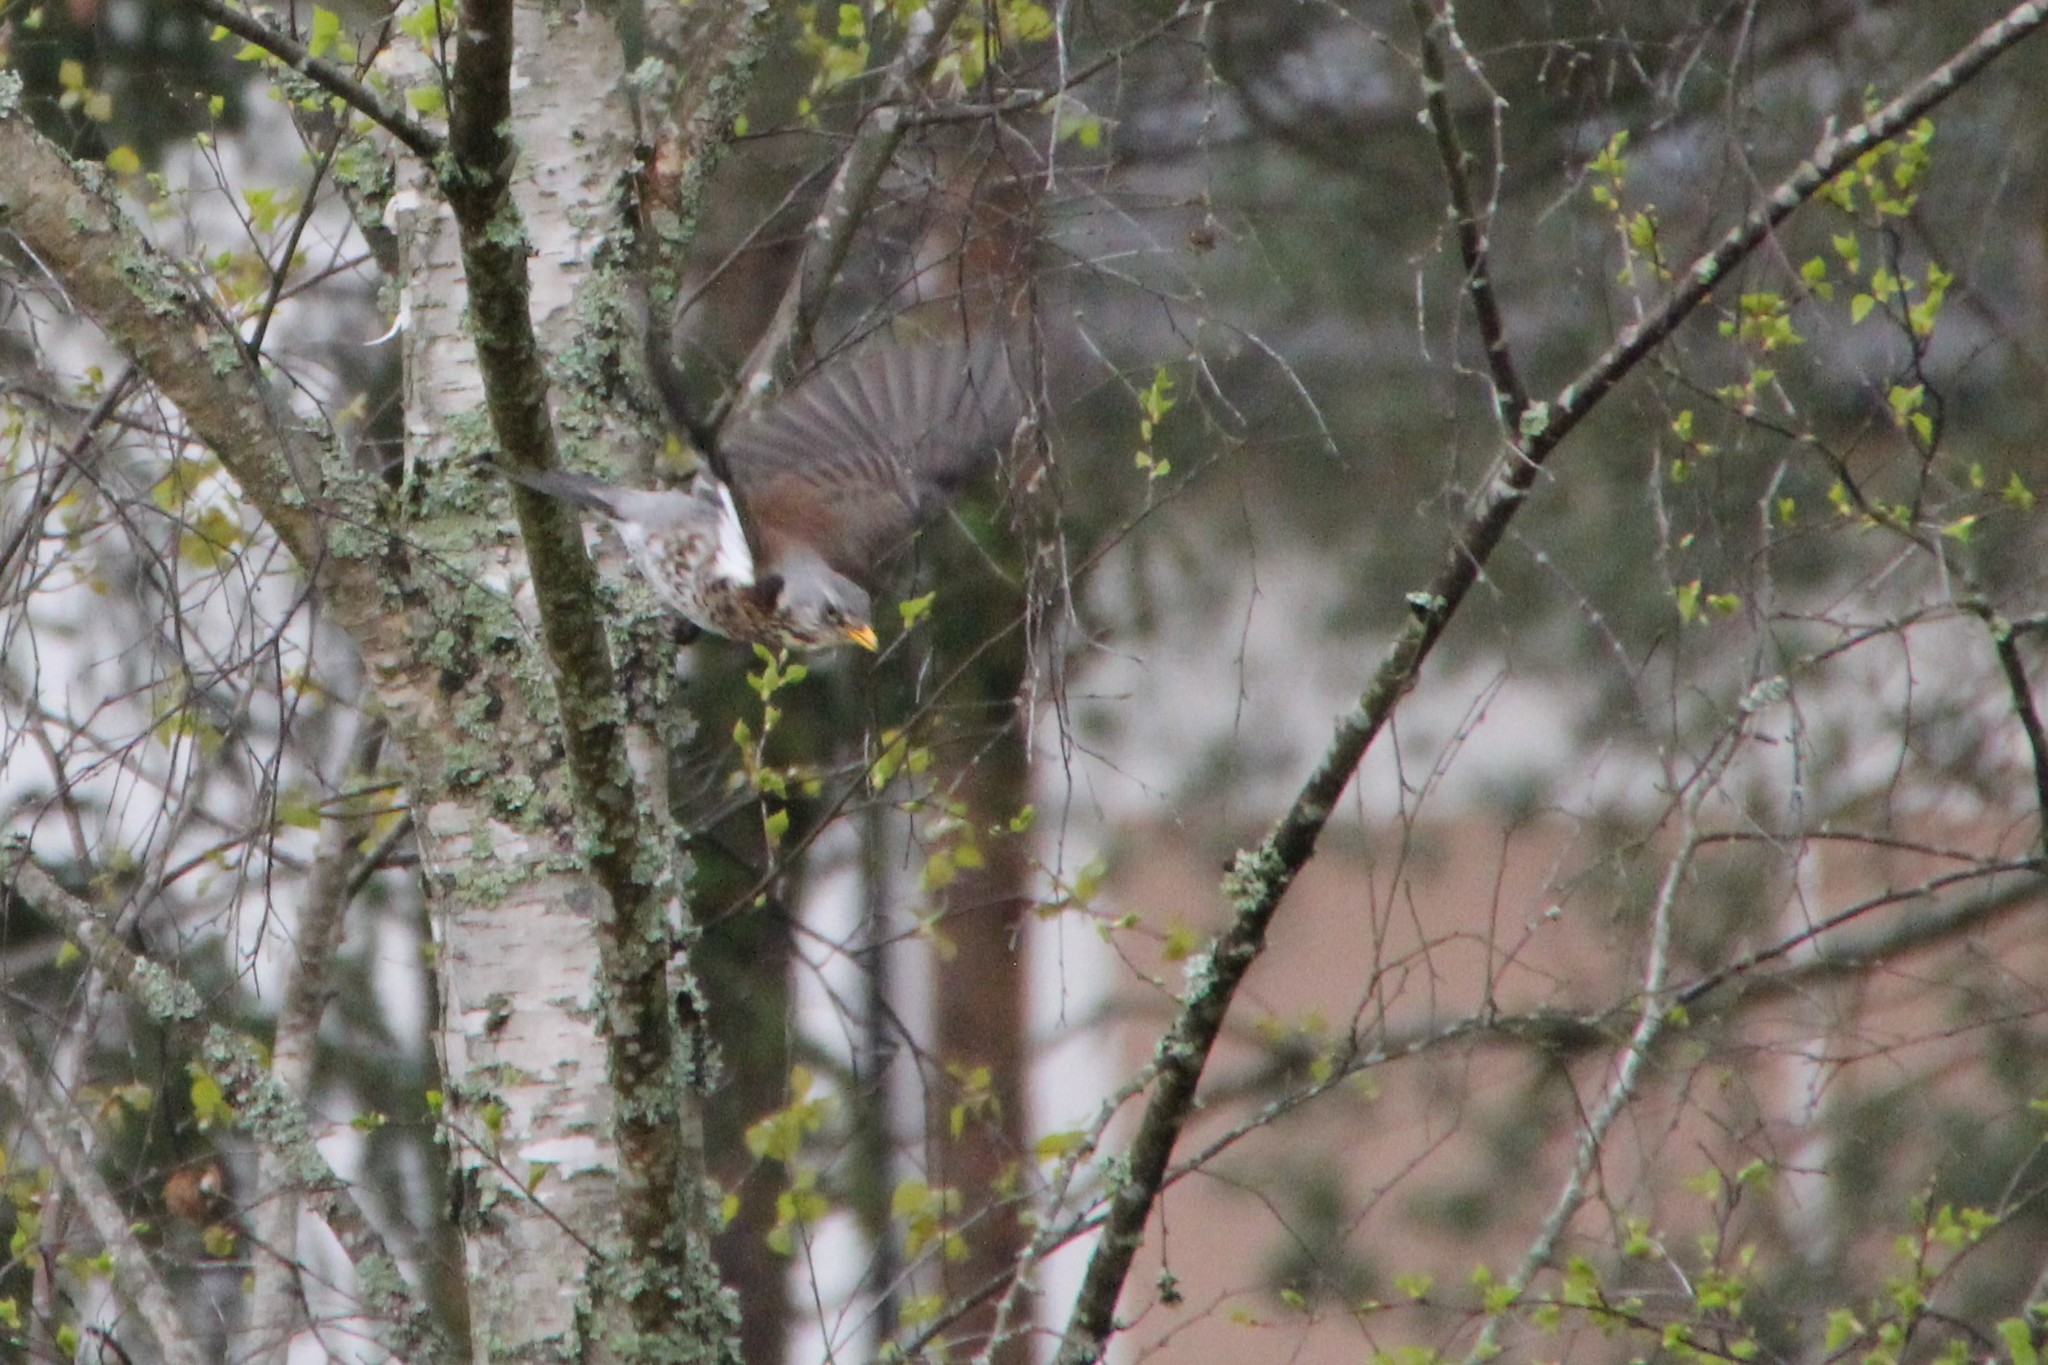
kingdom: Animalia
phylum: Chordata
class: Aves
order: Passeriformes
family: Turdidae
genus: Turdus
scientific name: Turdus pilaris
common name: Fieldfare
